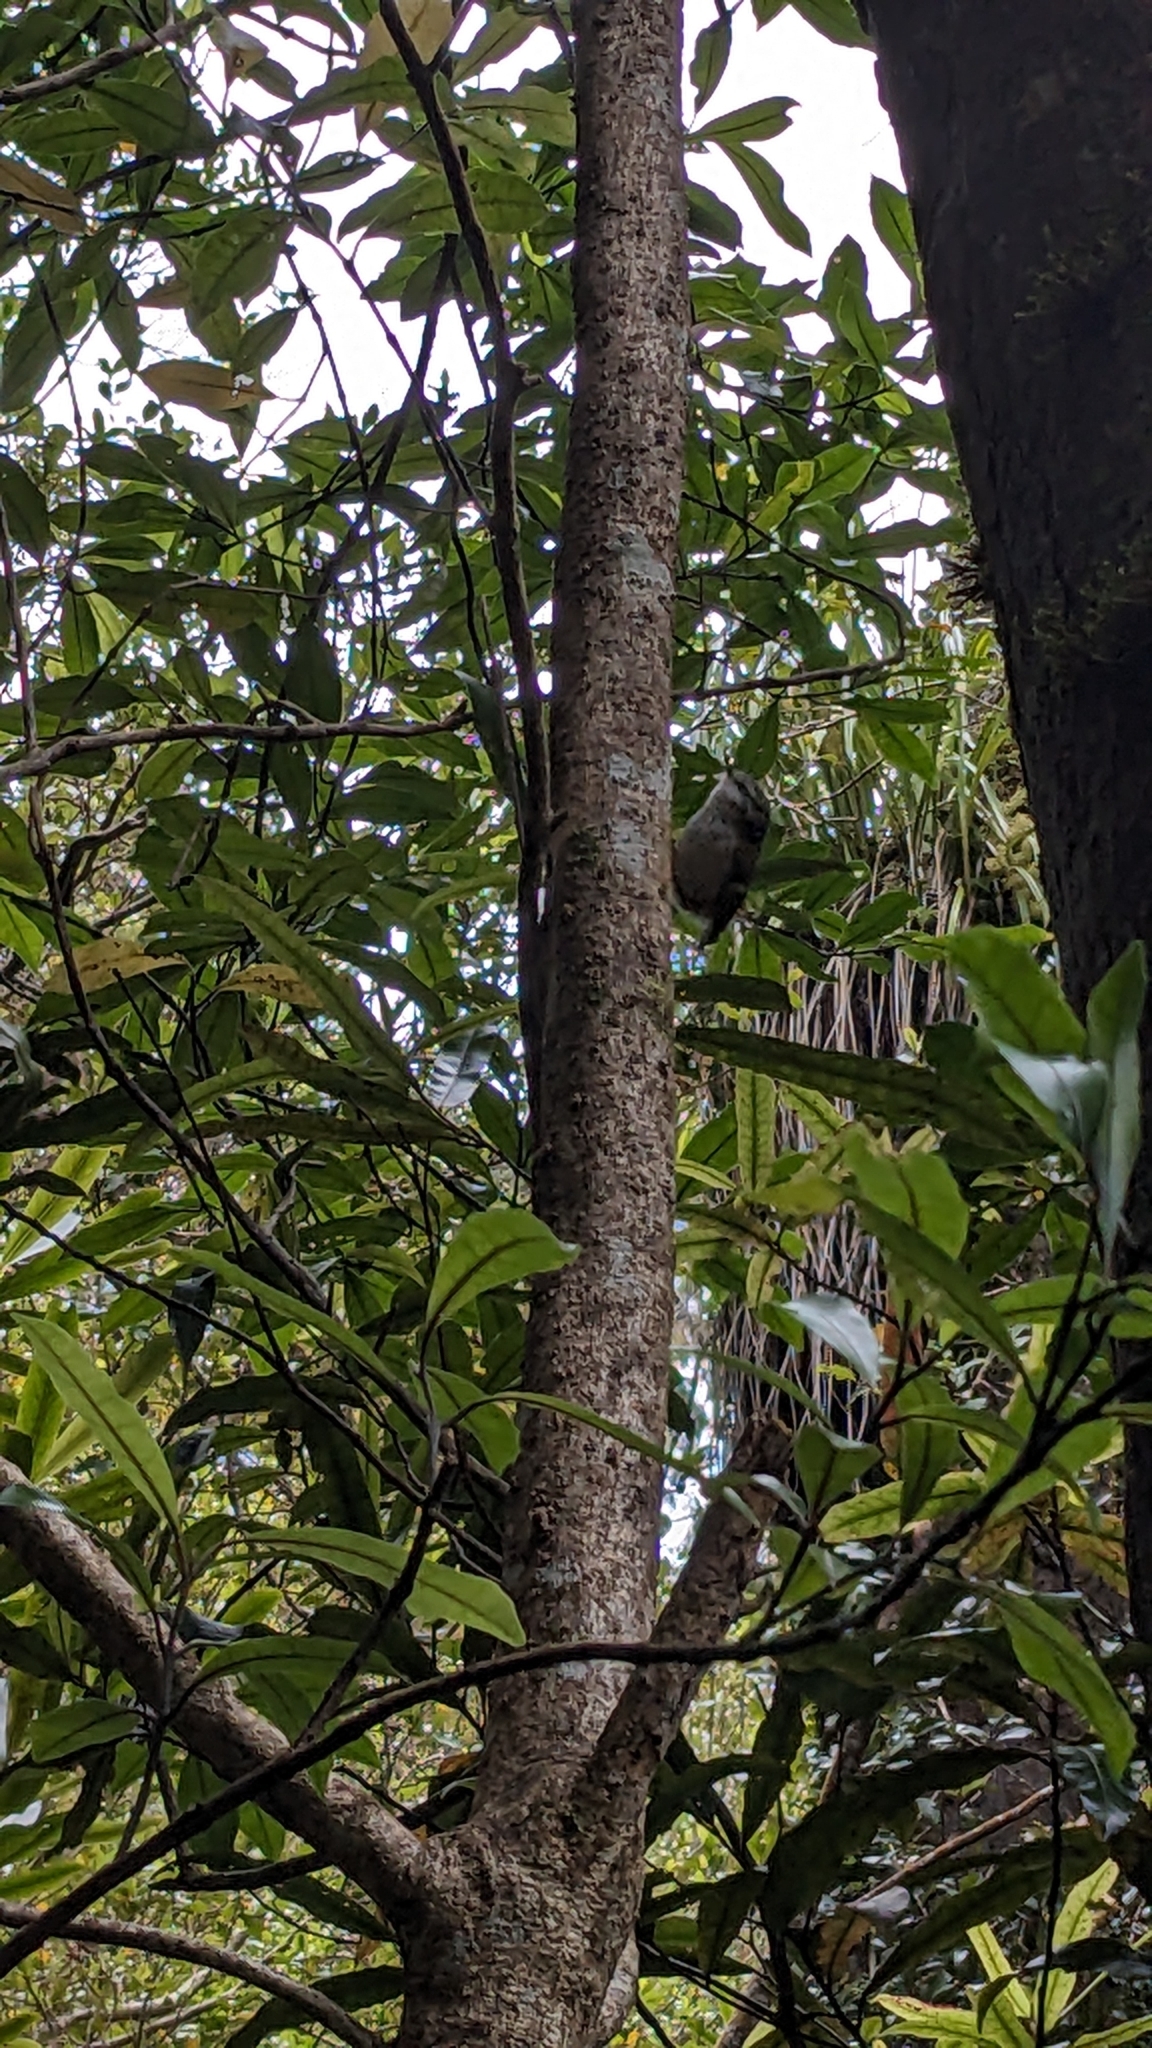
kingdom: Animalia
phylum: Chordata
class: Aves
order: Passeriformes
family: Acanthisittidae
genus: Acanthisitta
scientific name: Acanthisitta chloris
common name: Rifleman
